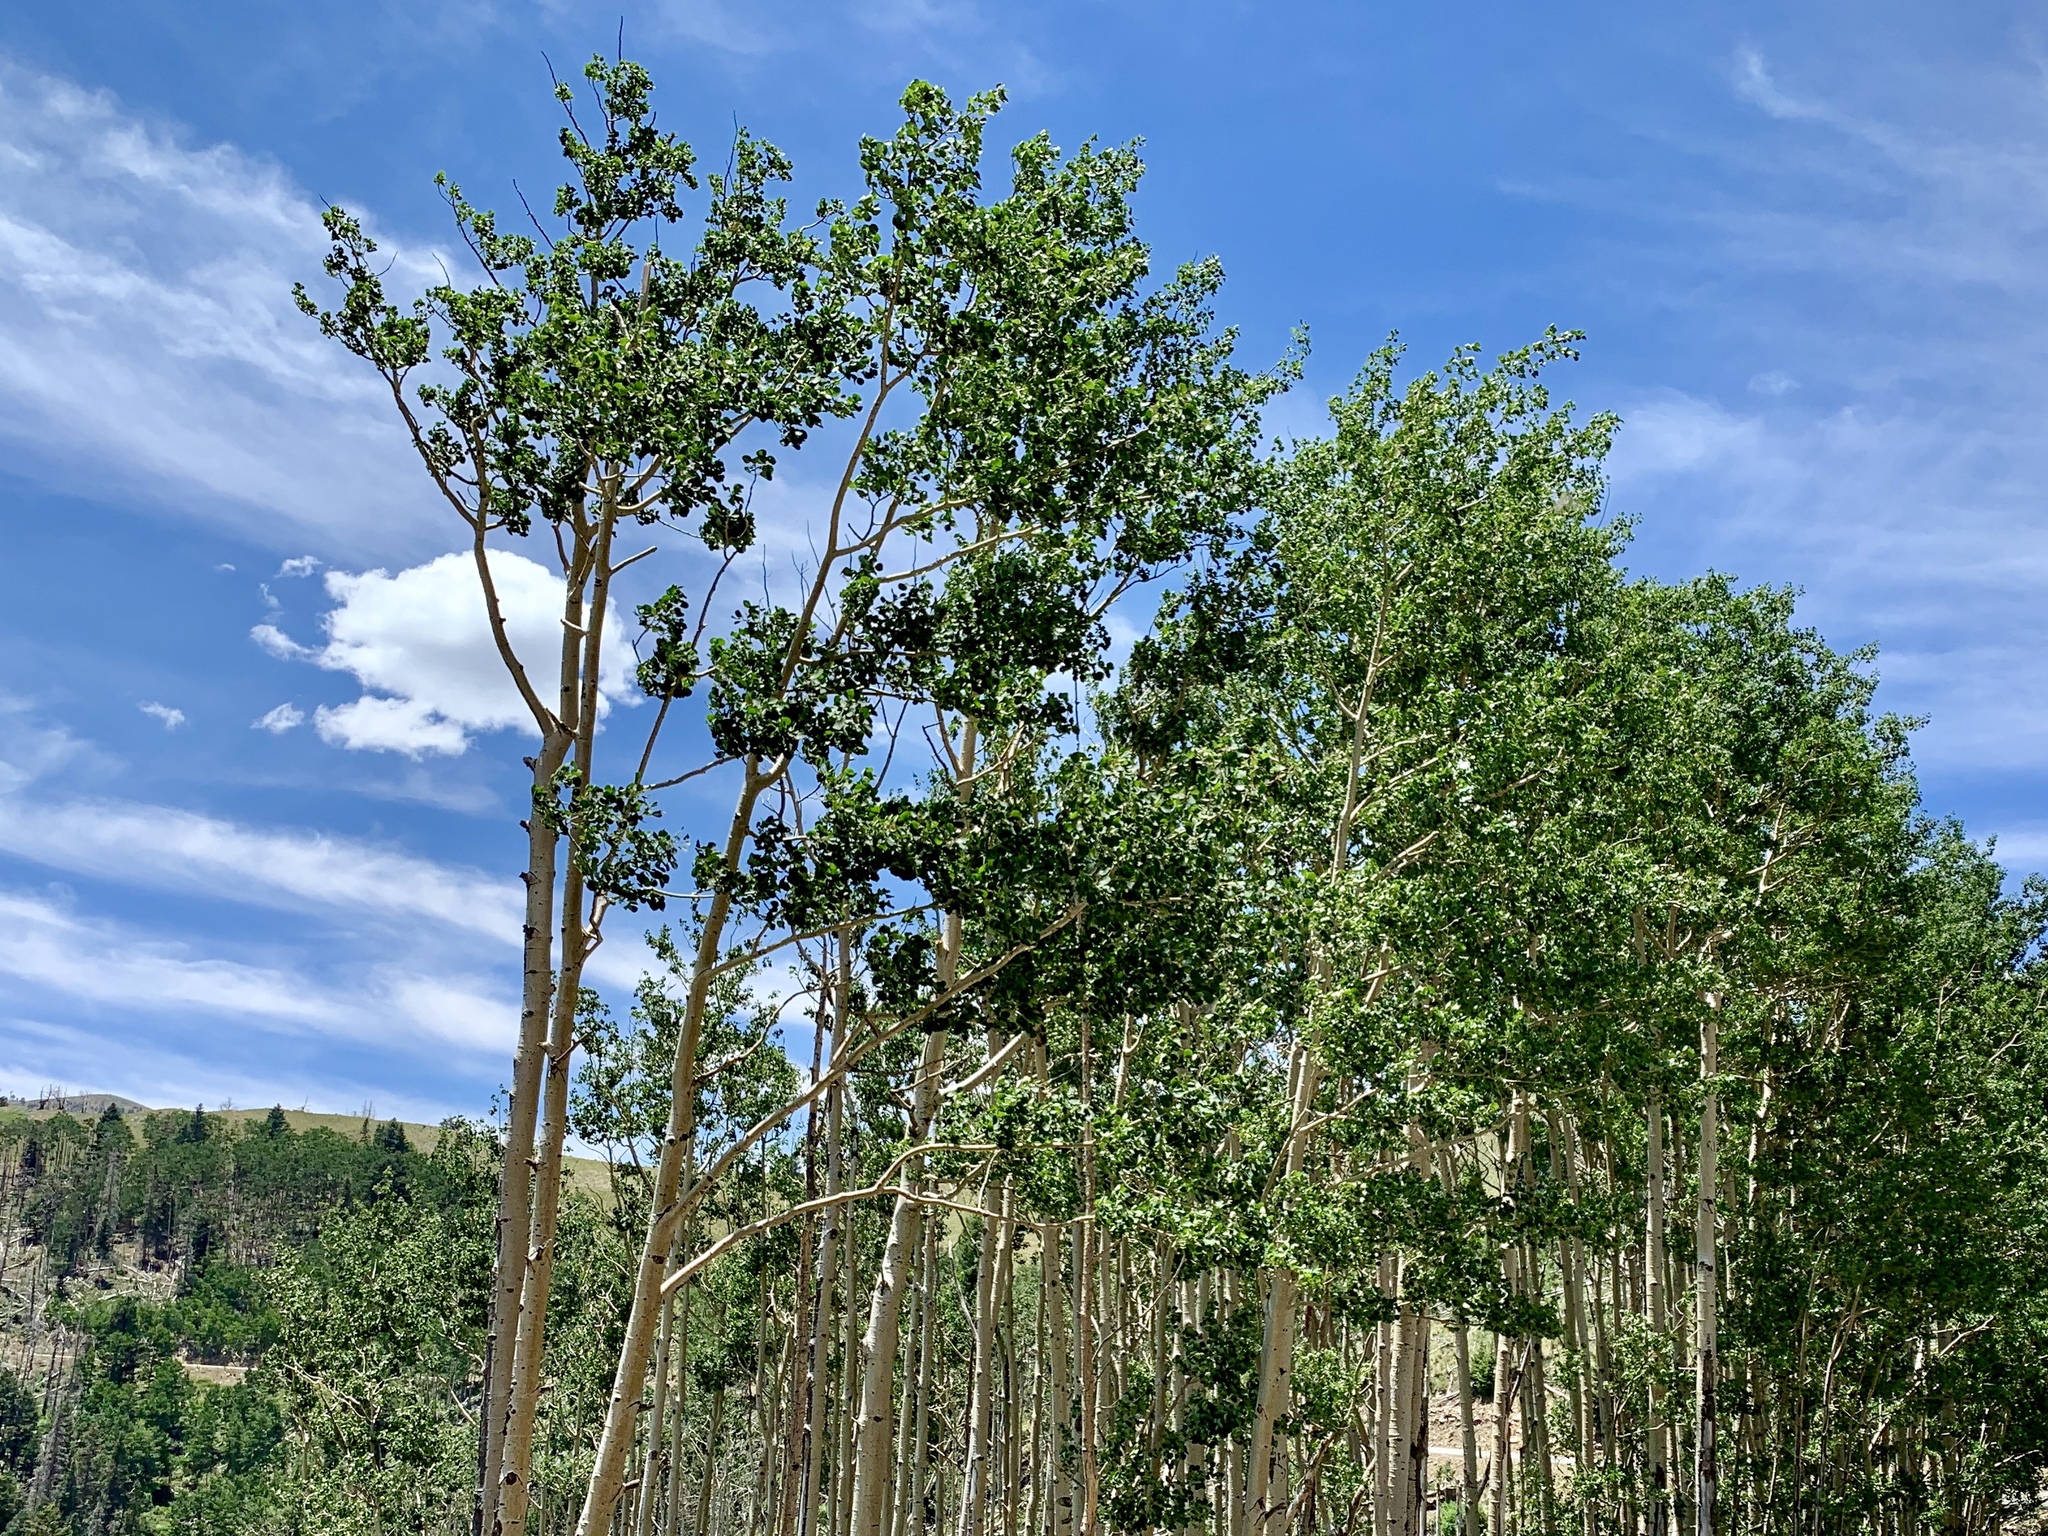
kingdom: Plantae
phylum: Tracheophyta
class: Magnoliopsida
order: Malpighiales
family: Salicaceae
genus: Populus
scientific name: Populus tremuloides
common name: Quaking aspen
